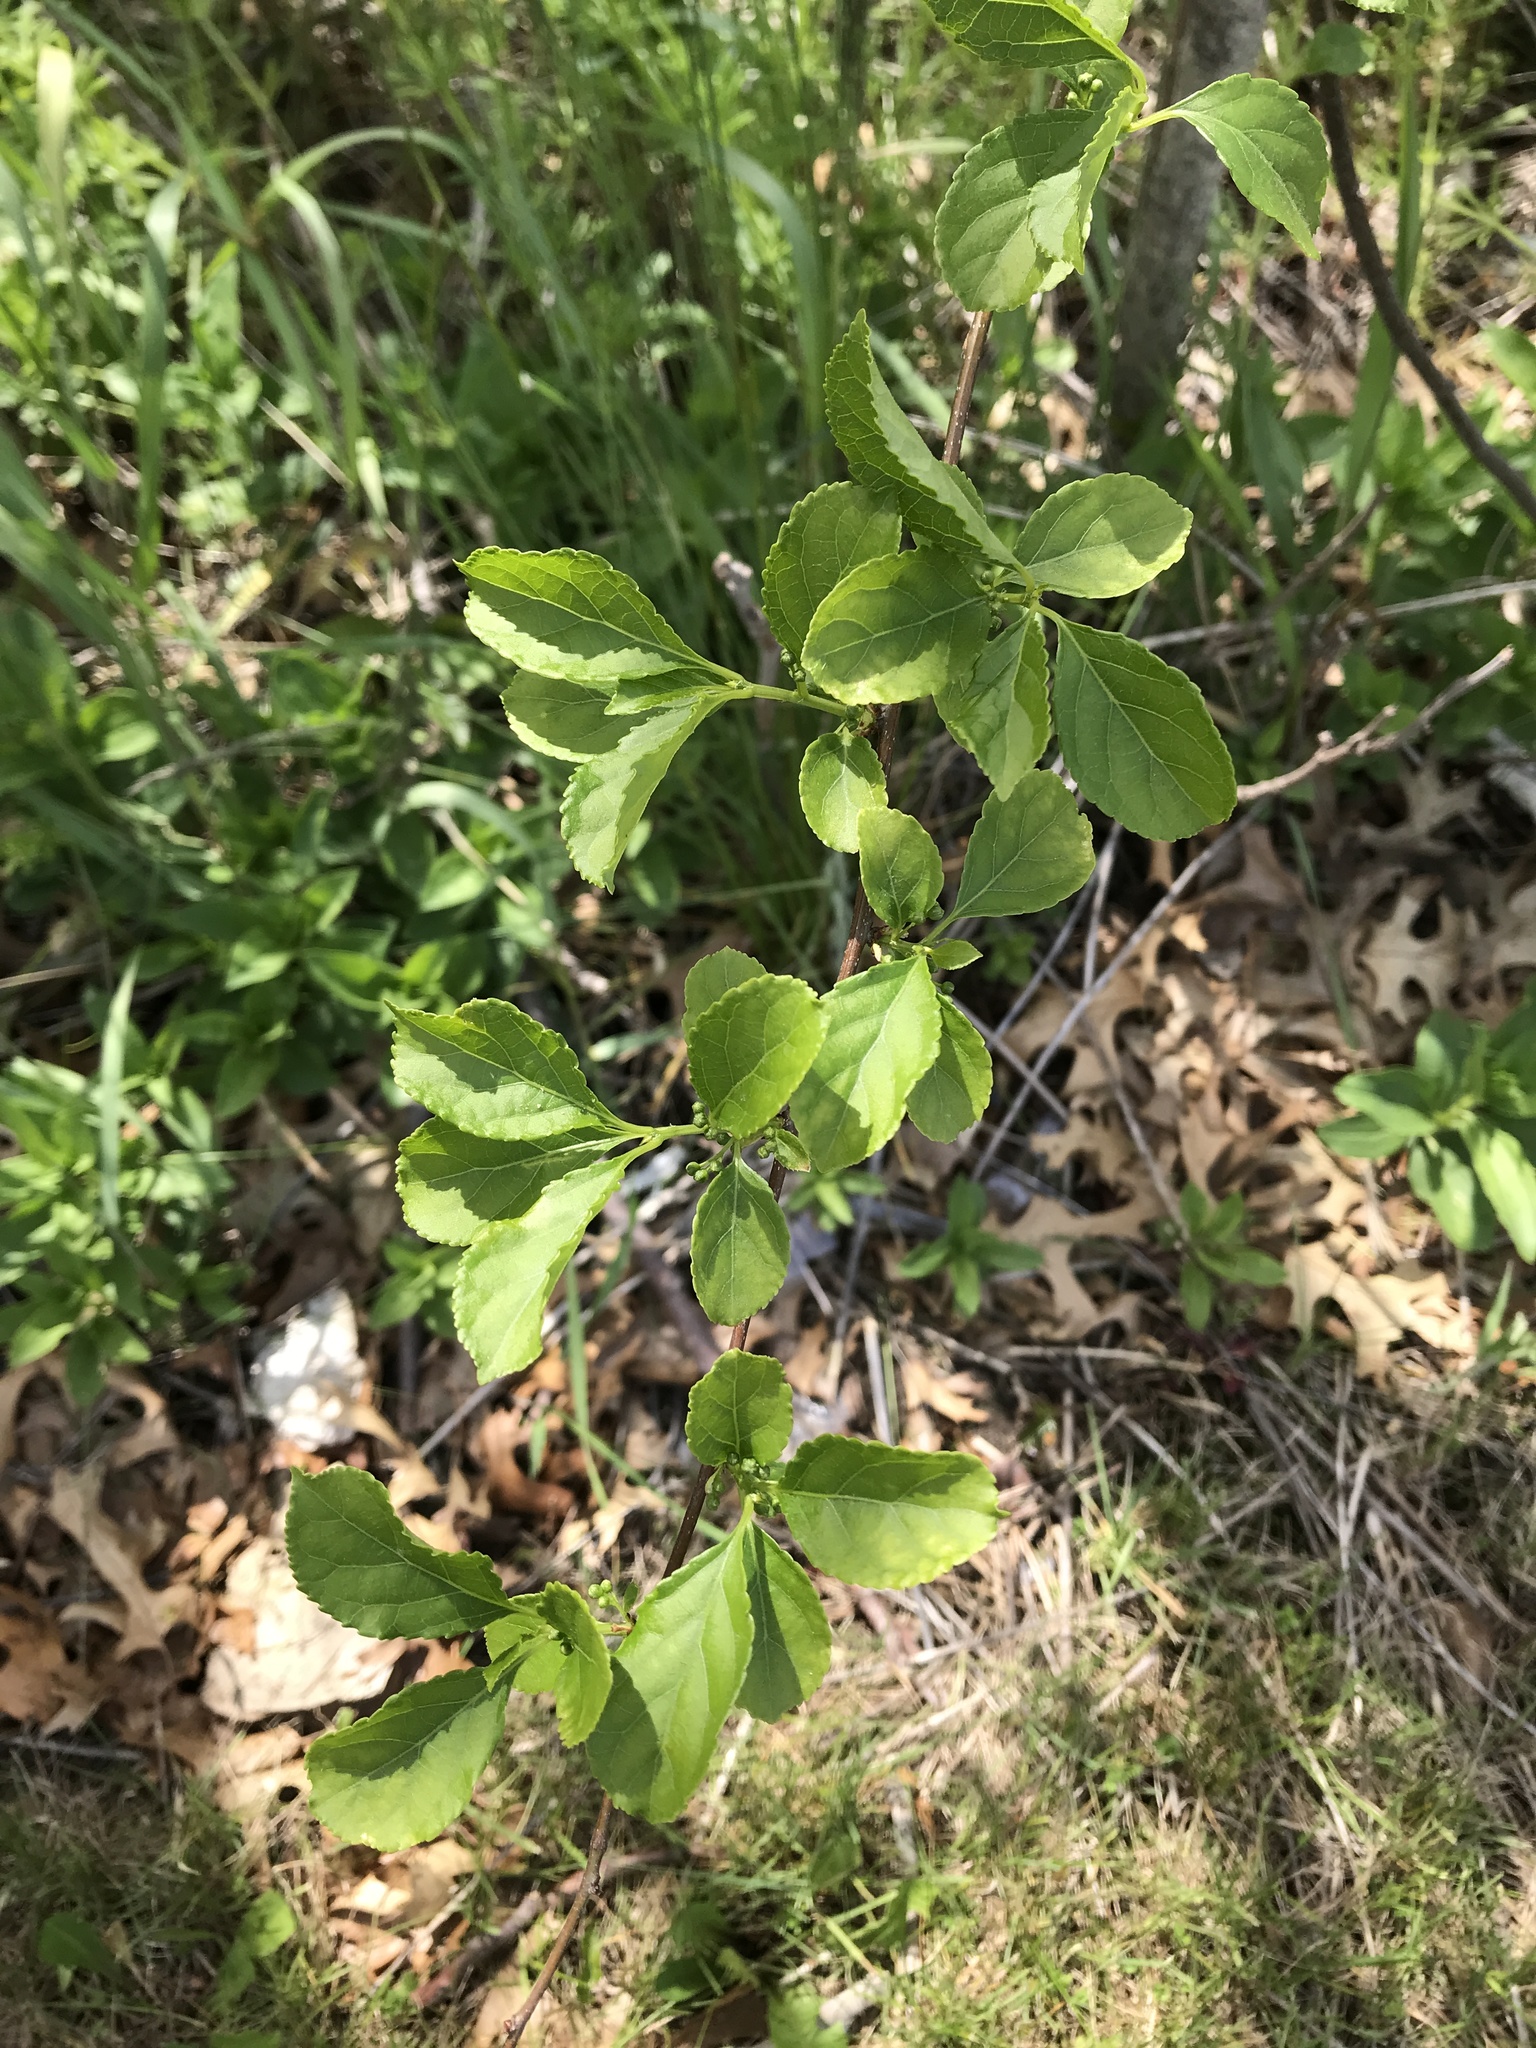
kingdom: Plantae
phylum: Tracheophyta
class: Magnoliopsida
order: Celastrales
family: Celastraceae
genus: Celastrus
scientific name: Celastrus orbiculatus
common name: Oriental bittersweet
